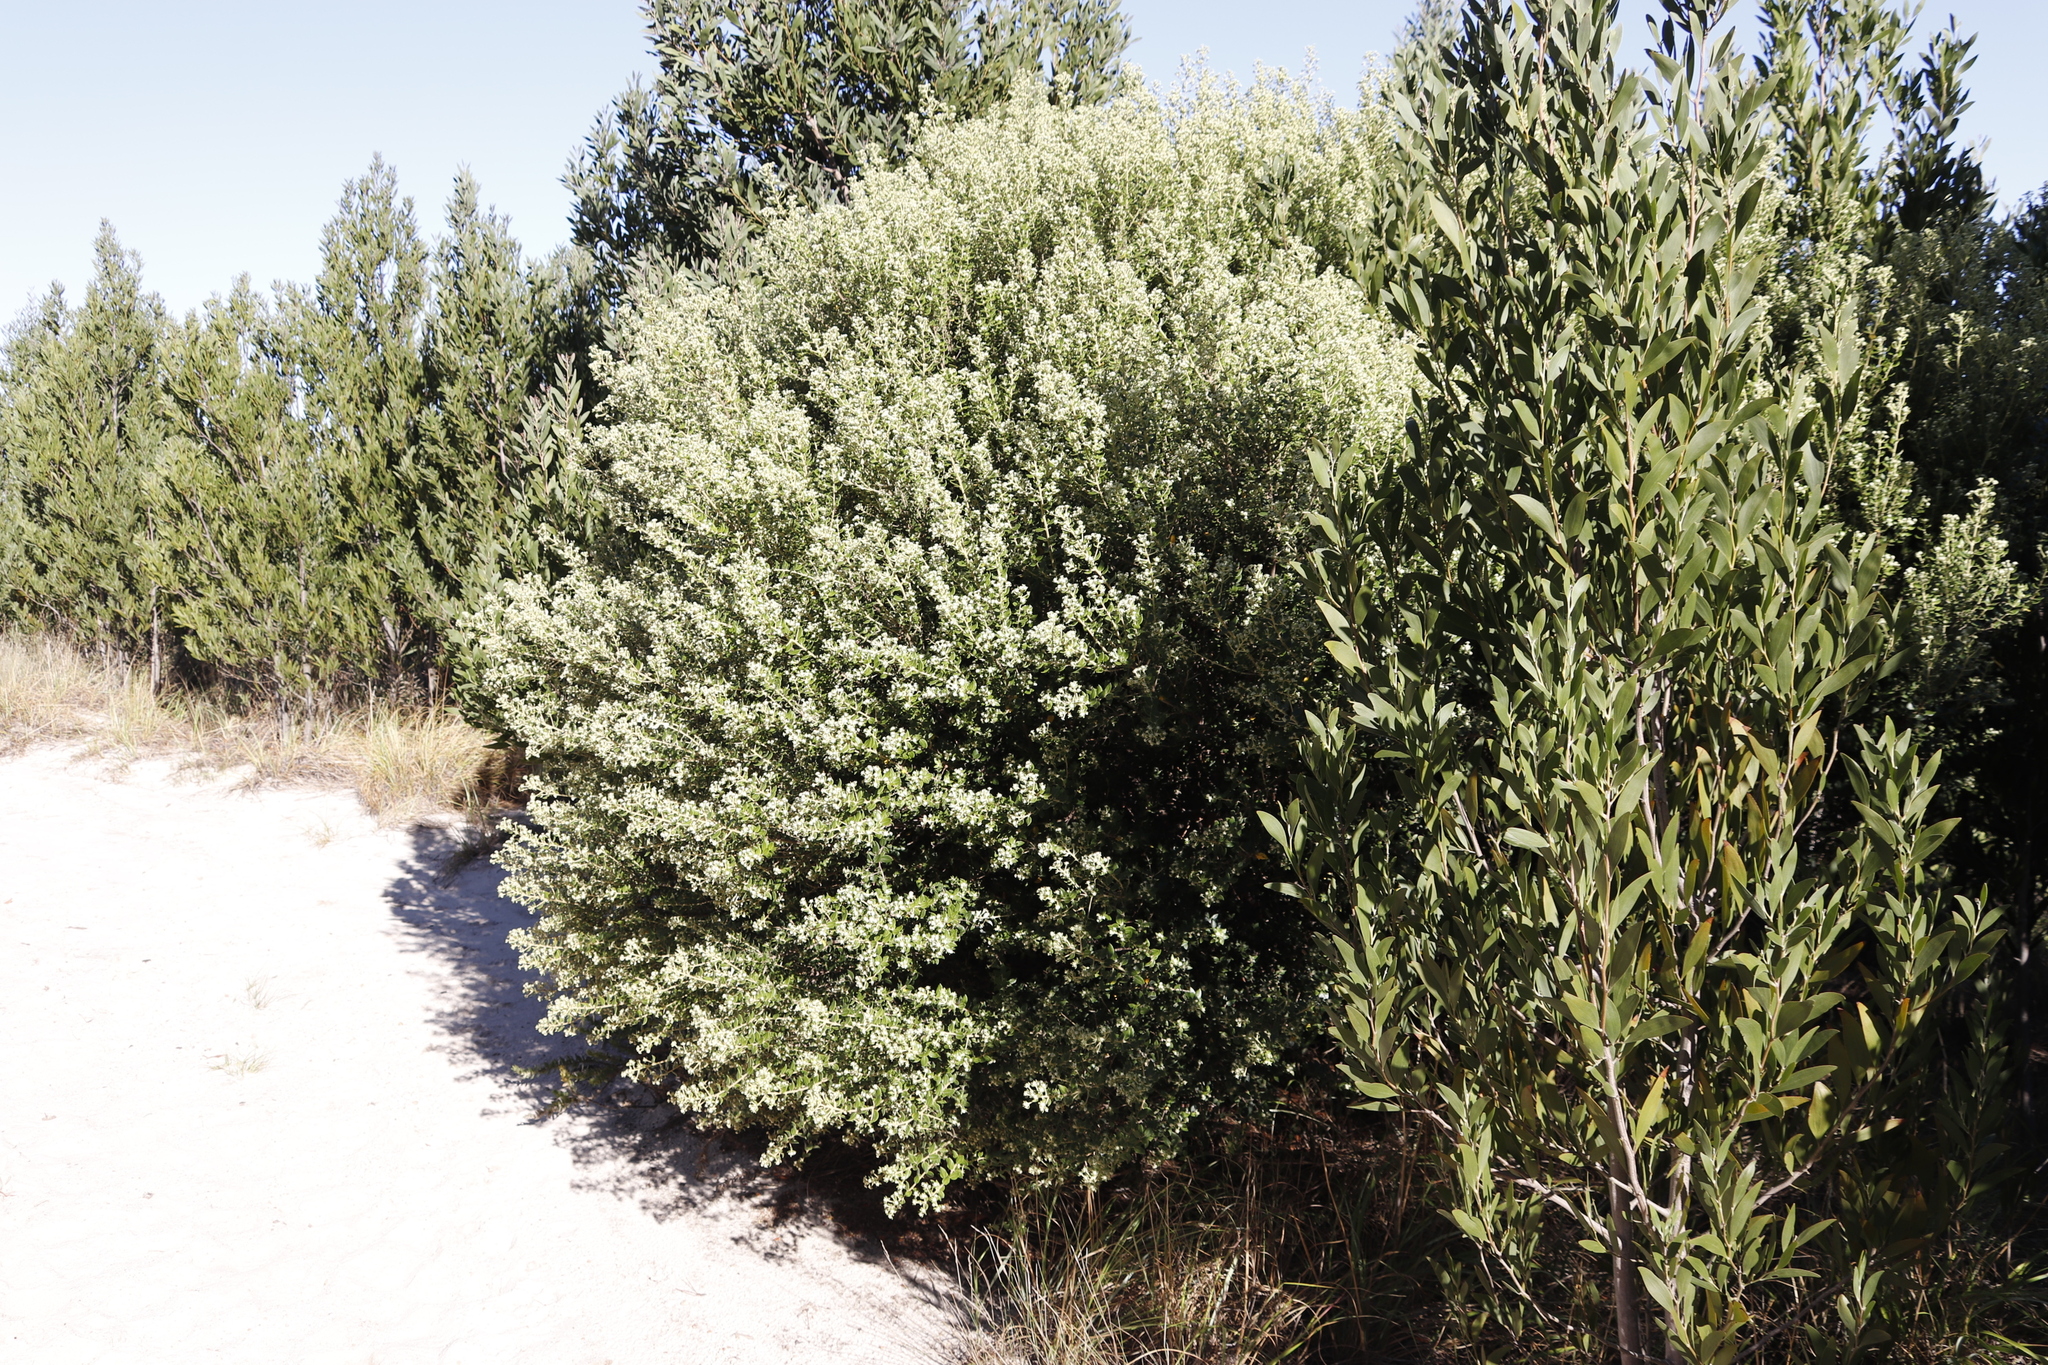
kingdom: Plantae
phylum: Tracheophyta
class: Magnoliopsida
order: Rosales
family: Rhamnaceae
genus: Phylica
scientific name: Phylica buxifolia
